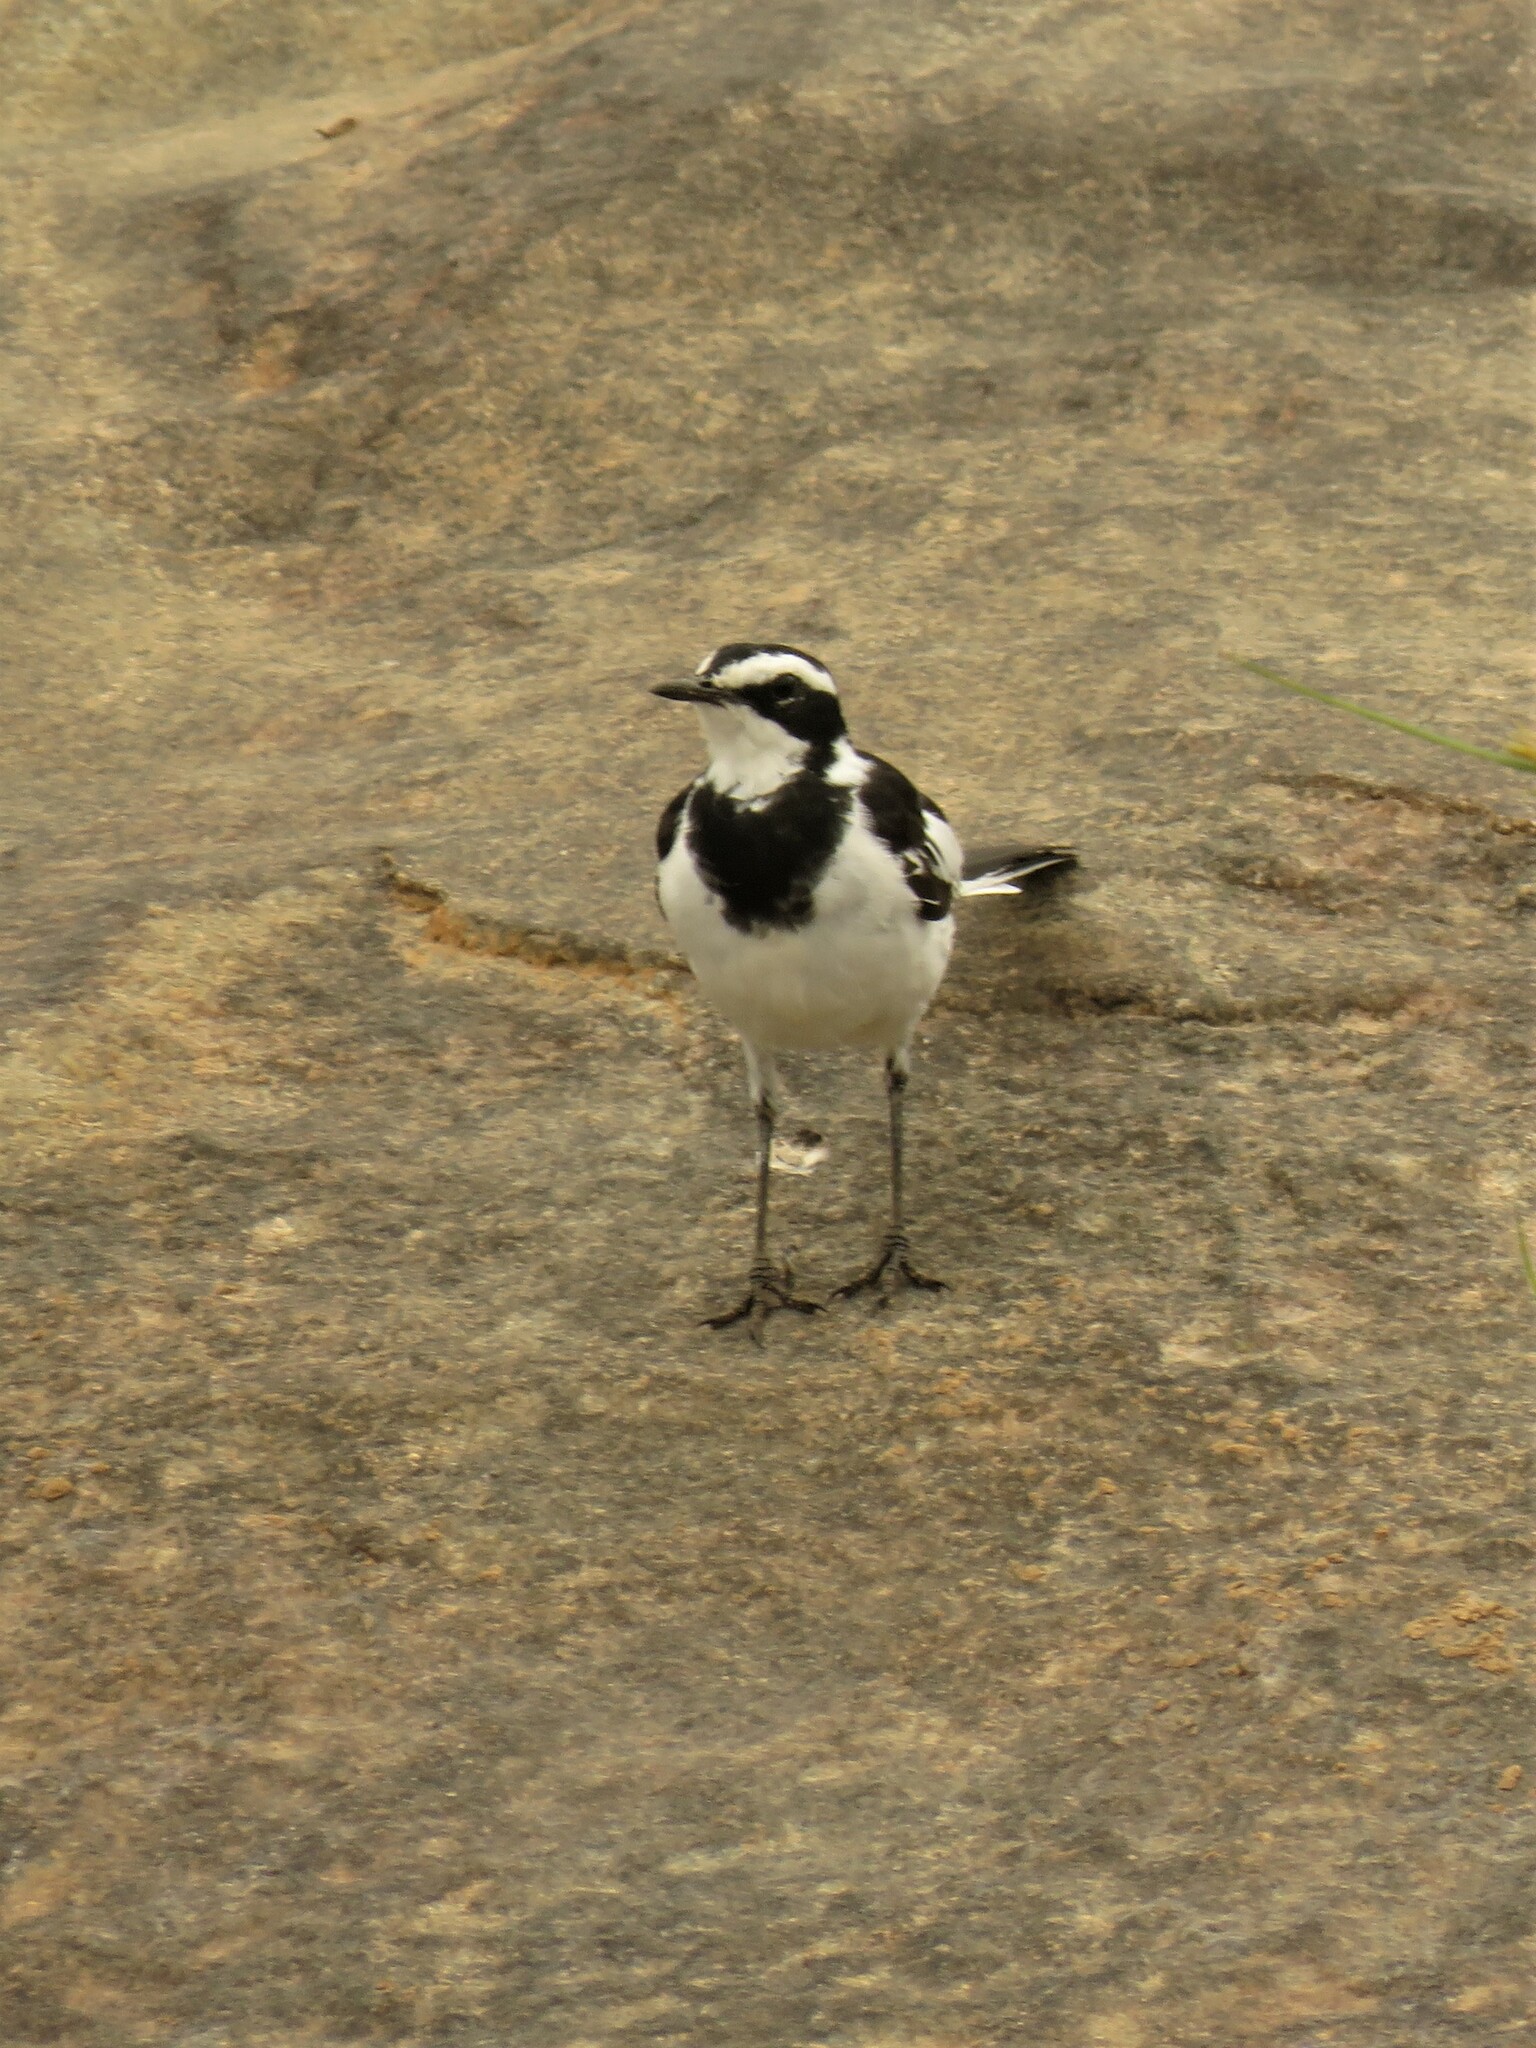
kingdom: Animalia
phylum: Chordata
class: Aves
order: Passeriformes
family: Motacillidae
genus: Motacilla
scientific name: Motacilla aguimp
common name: African pied wagtail
